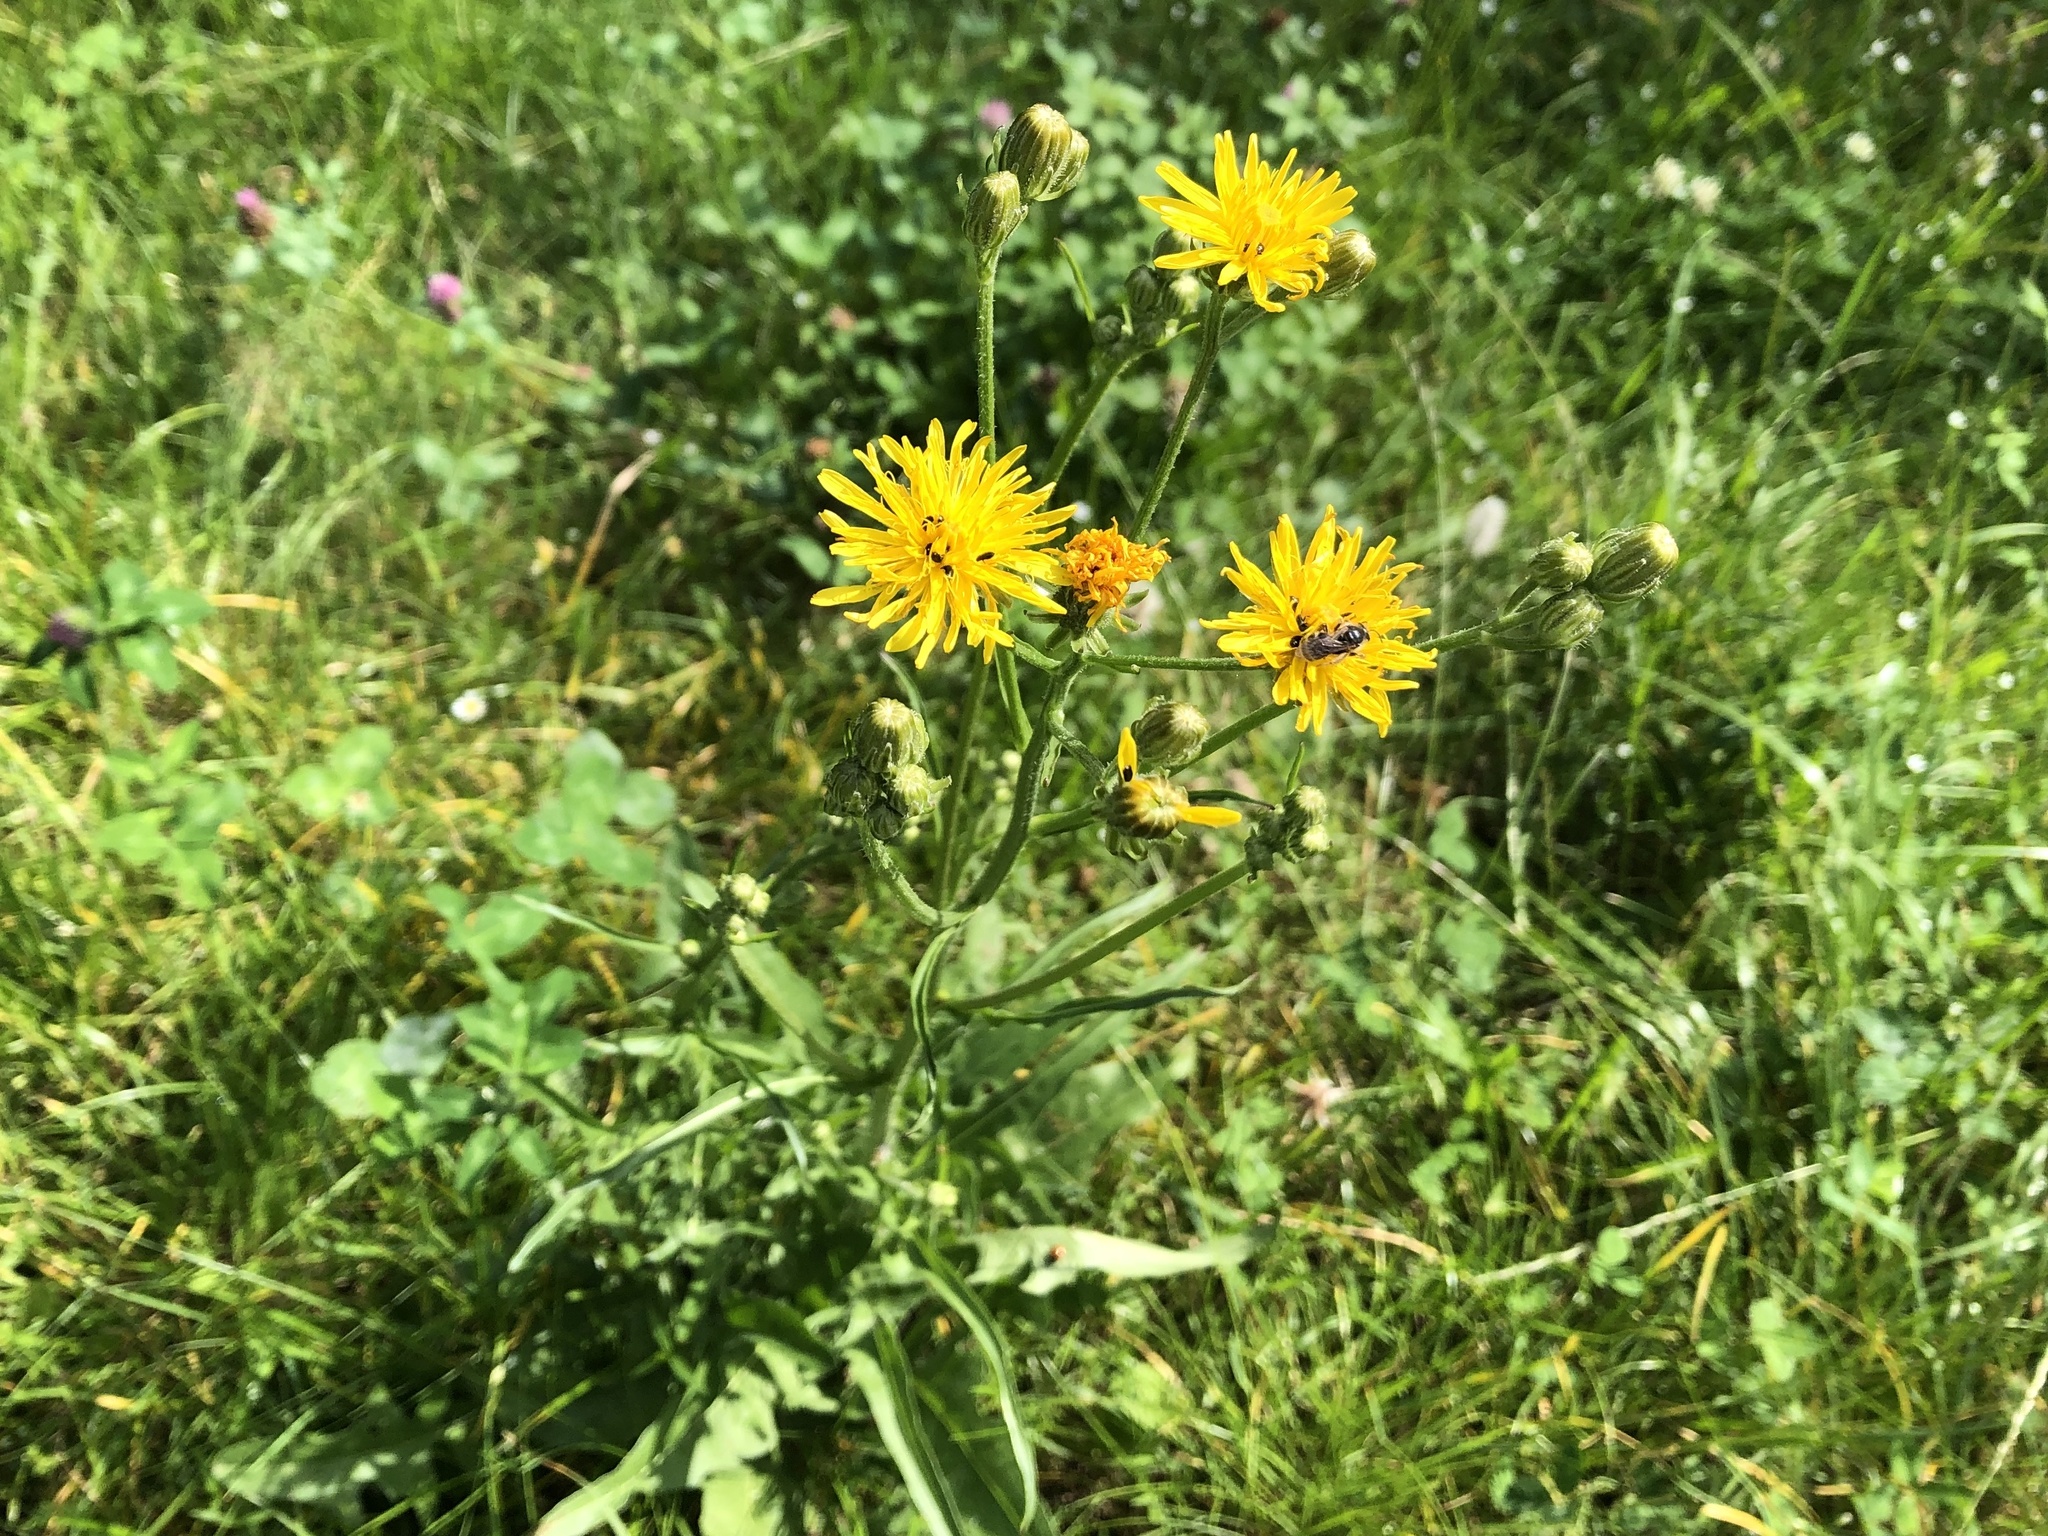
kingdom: Plantae
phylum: Tracheophyta
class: Magnoliopsida
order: Asterales
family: Asteraceae
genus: Crepis
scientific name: Crepis biennis
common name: Rough hawk's-beard
